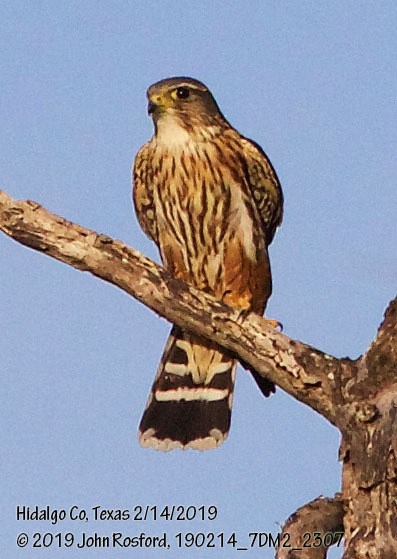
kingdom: Animalia
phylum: Chordata
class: Aves
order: Falconiformes
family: Falconidae
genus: Falco
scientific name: Falco columbarius
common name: Merlin
